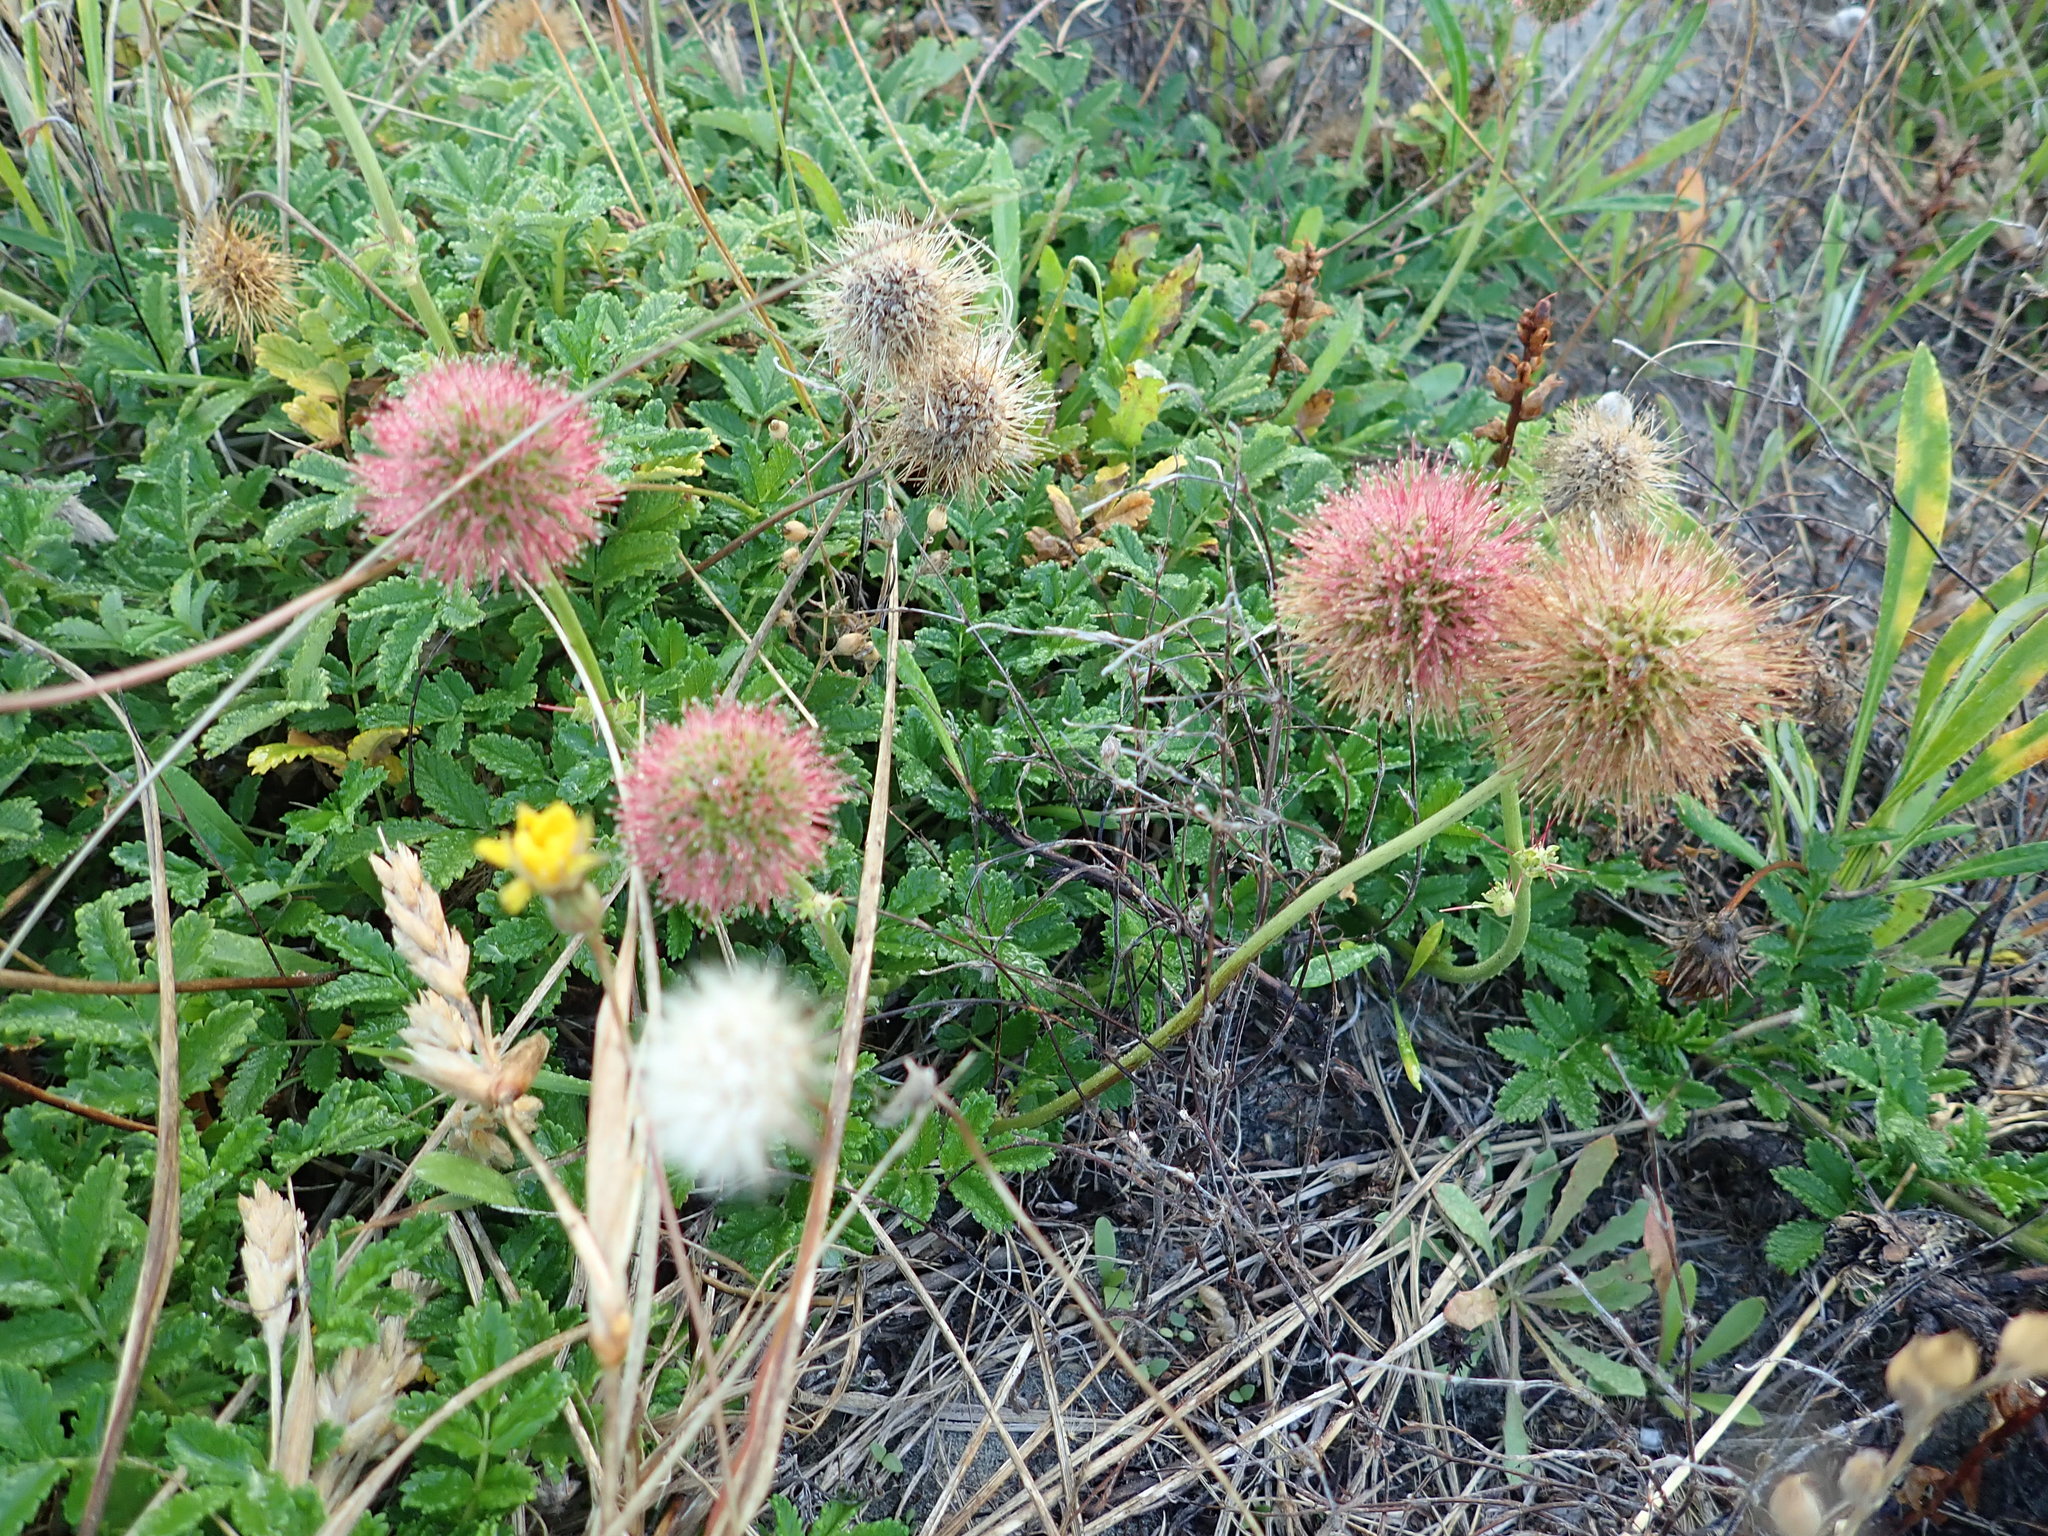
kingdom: Plantae
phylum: Tracheophyta
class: Magnoliopsida
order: Rosales
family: Rosaceae
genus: Acaena
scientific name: Acaena novae-zelandiae
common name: Pirri-pirri-bur
